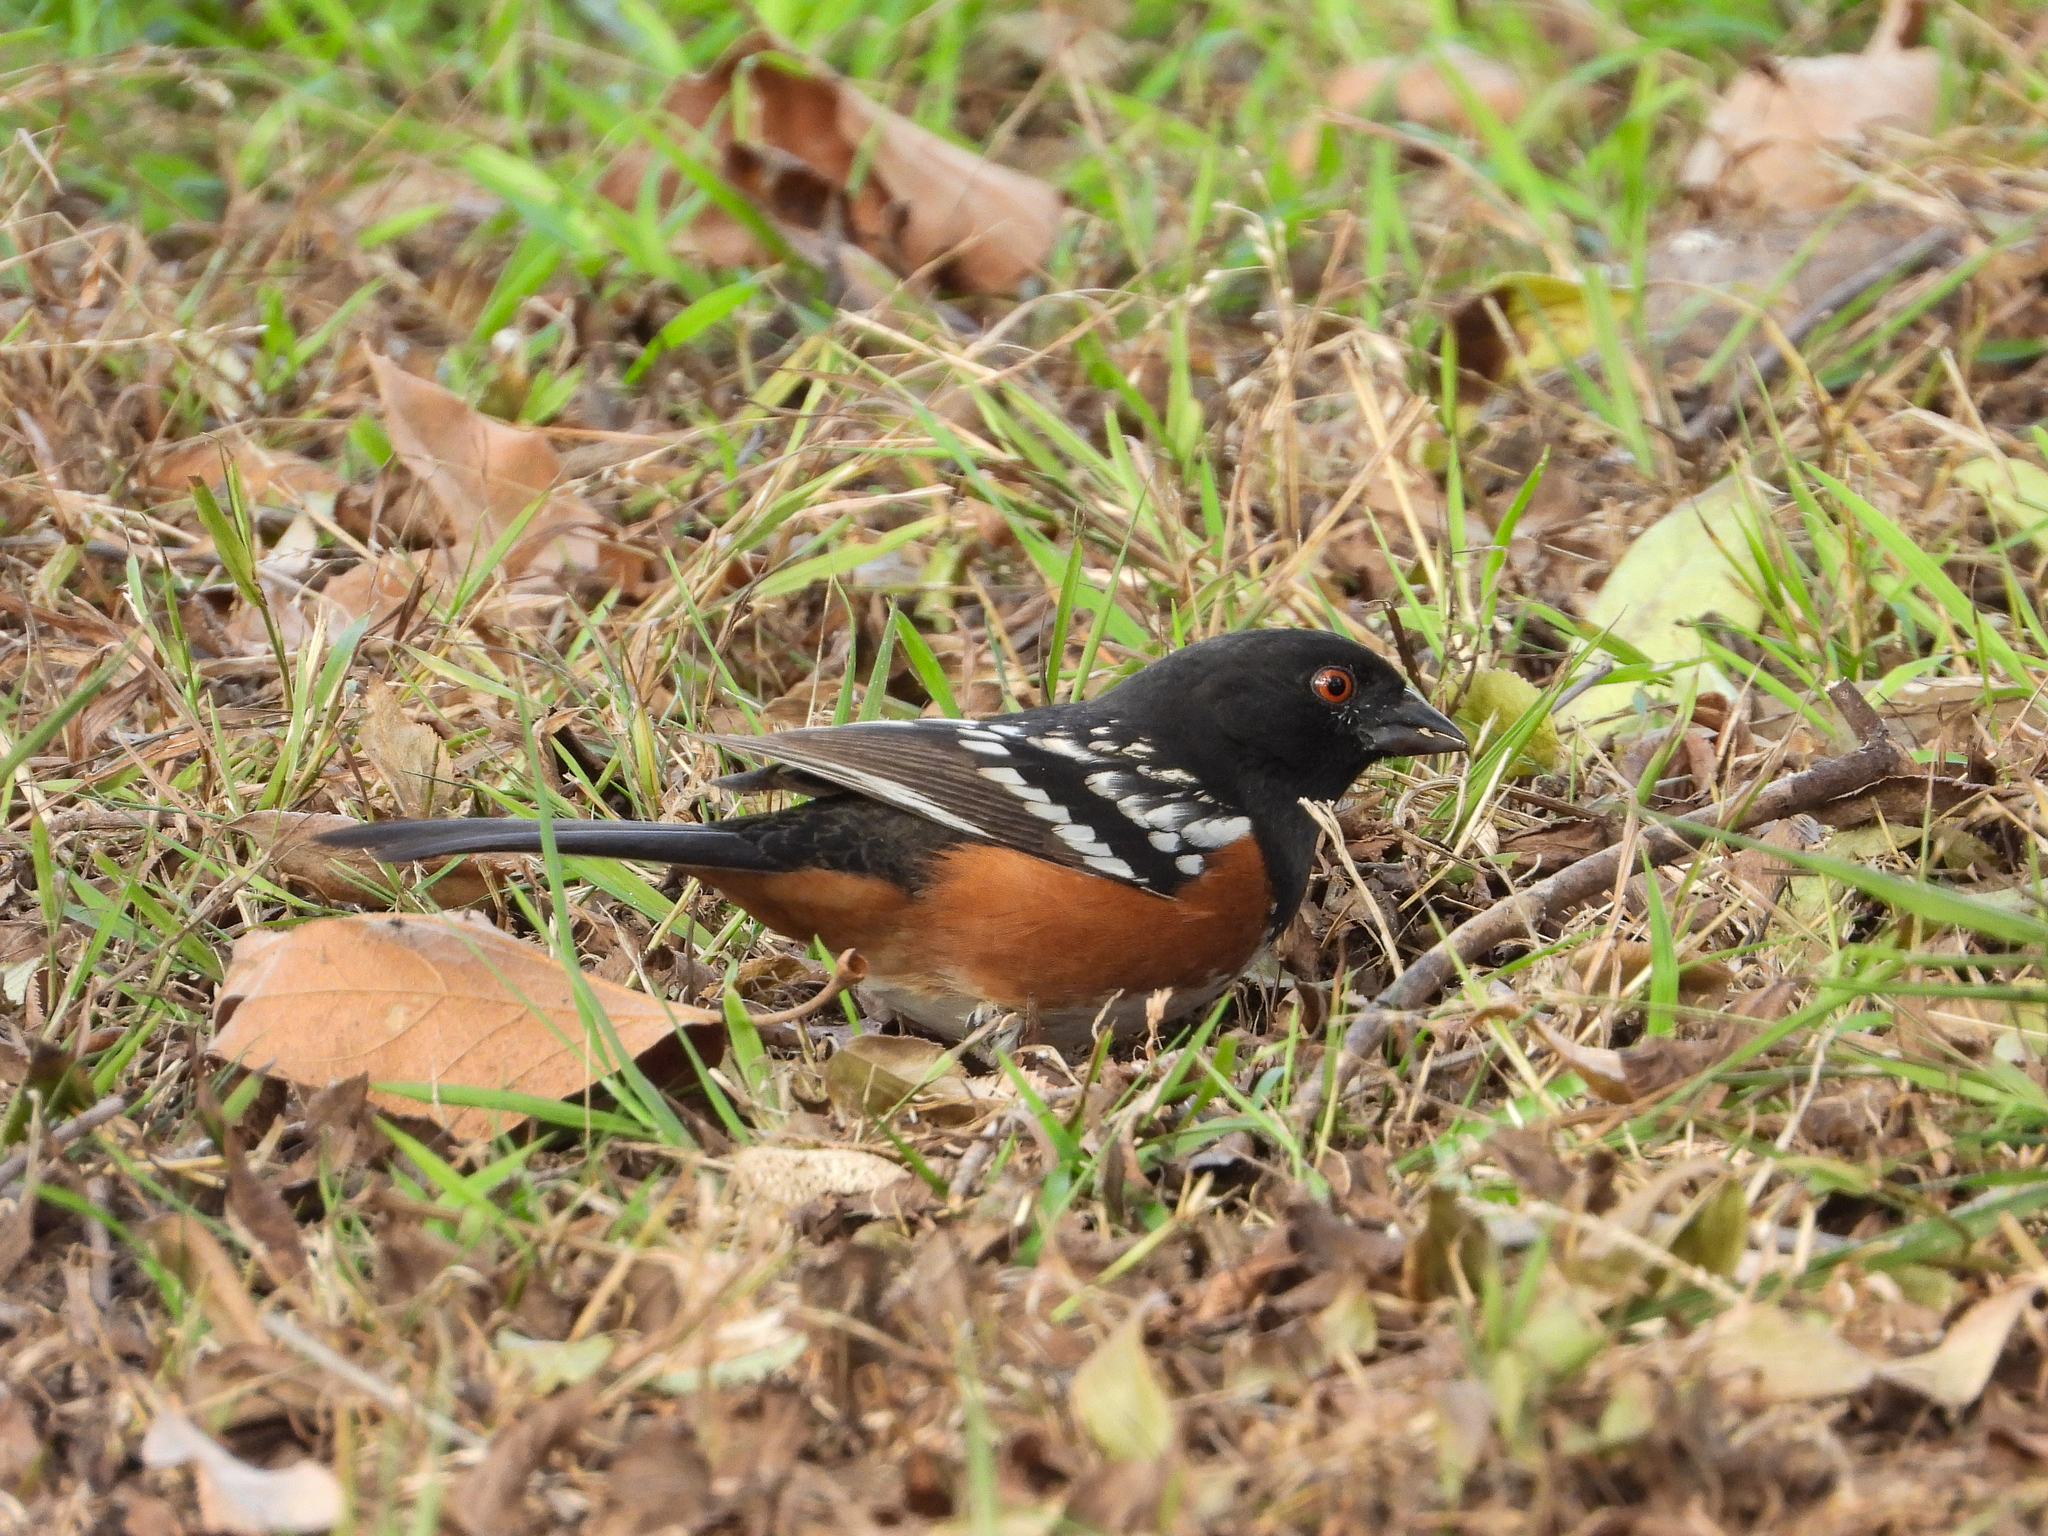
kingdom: Animalia
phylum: Chordata
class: Aves
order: Passeriformes
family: Passerellidae
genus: Pipilo
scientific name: Pipilo maculatus
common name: Spotted towhee
